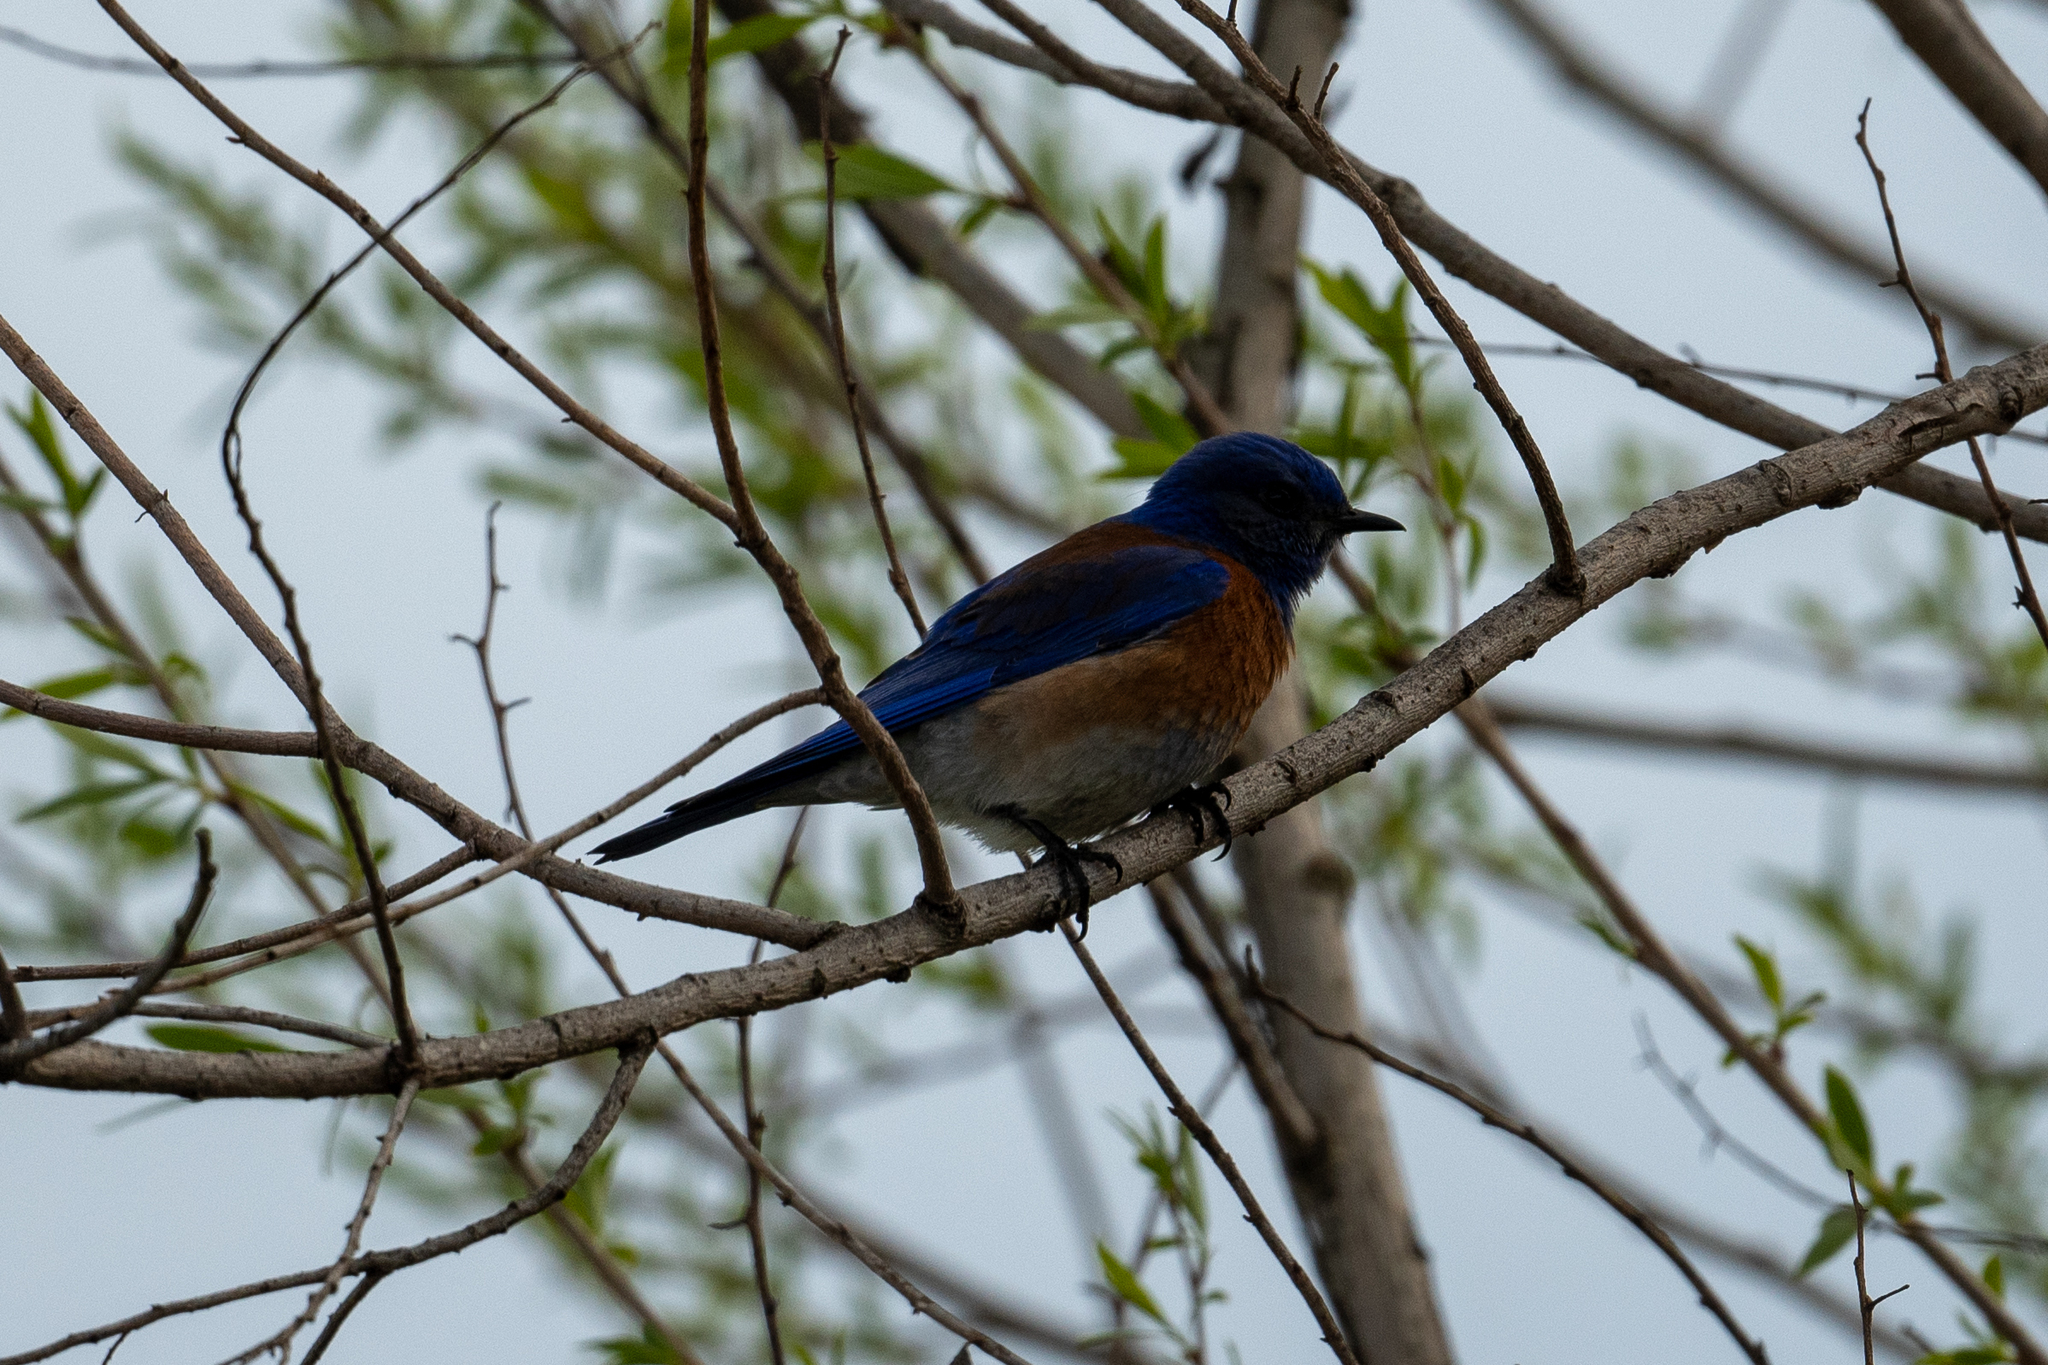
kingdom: Animalia
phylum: Chordata
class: Aves
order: Passeriformes
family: Turdidae
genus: Sialia
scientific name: Sialia mexicana
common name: Western bluebird
